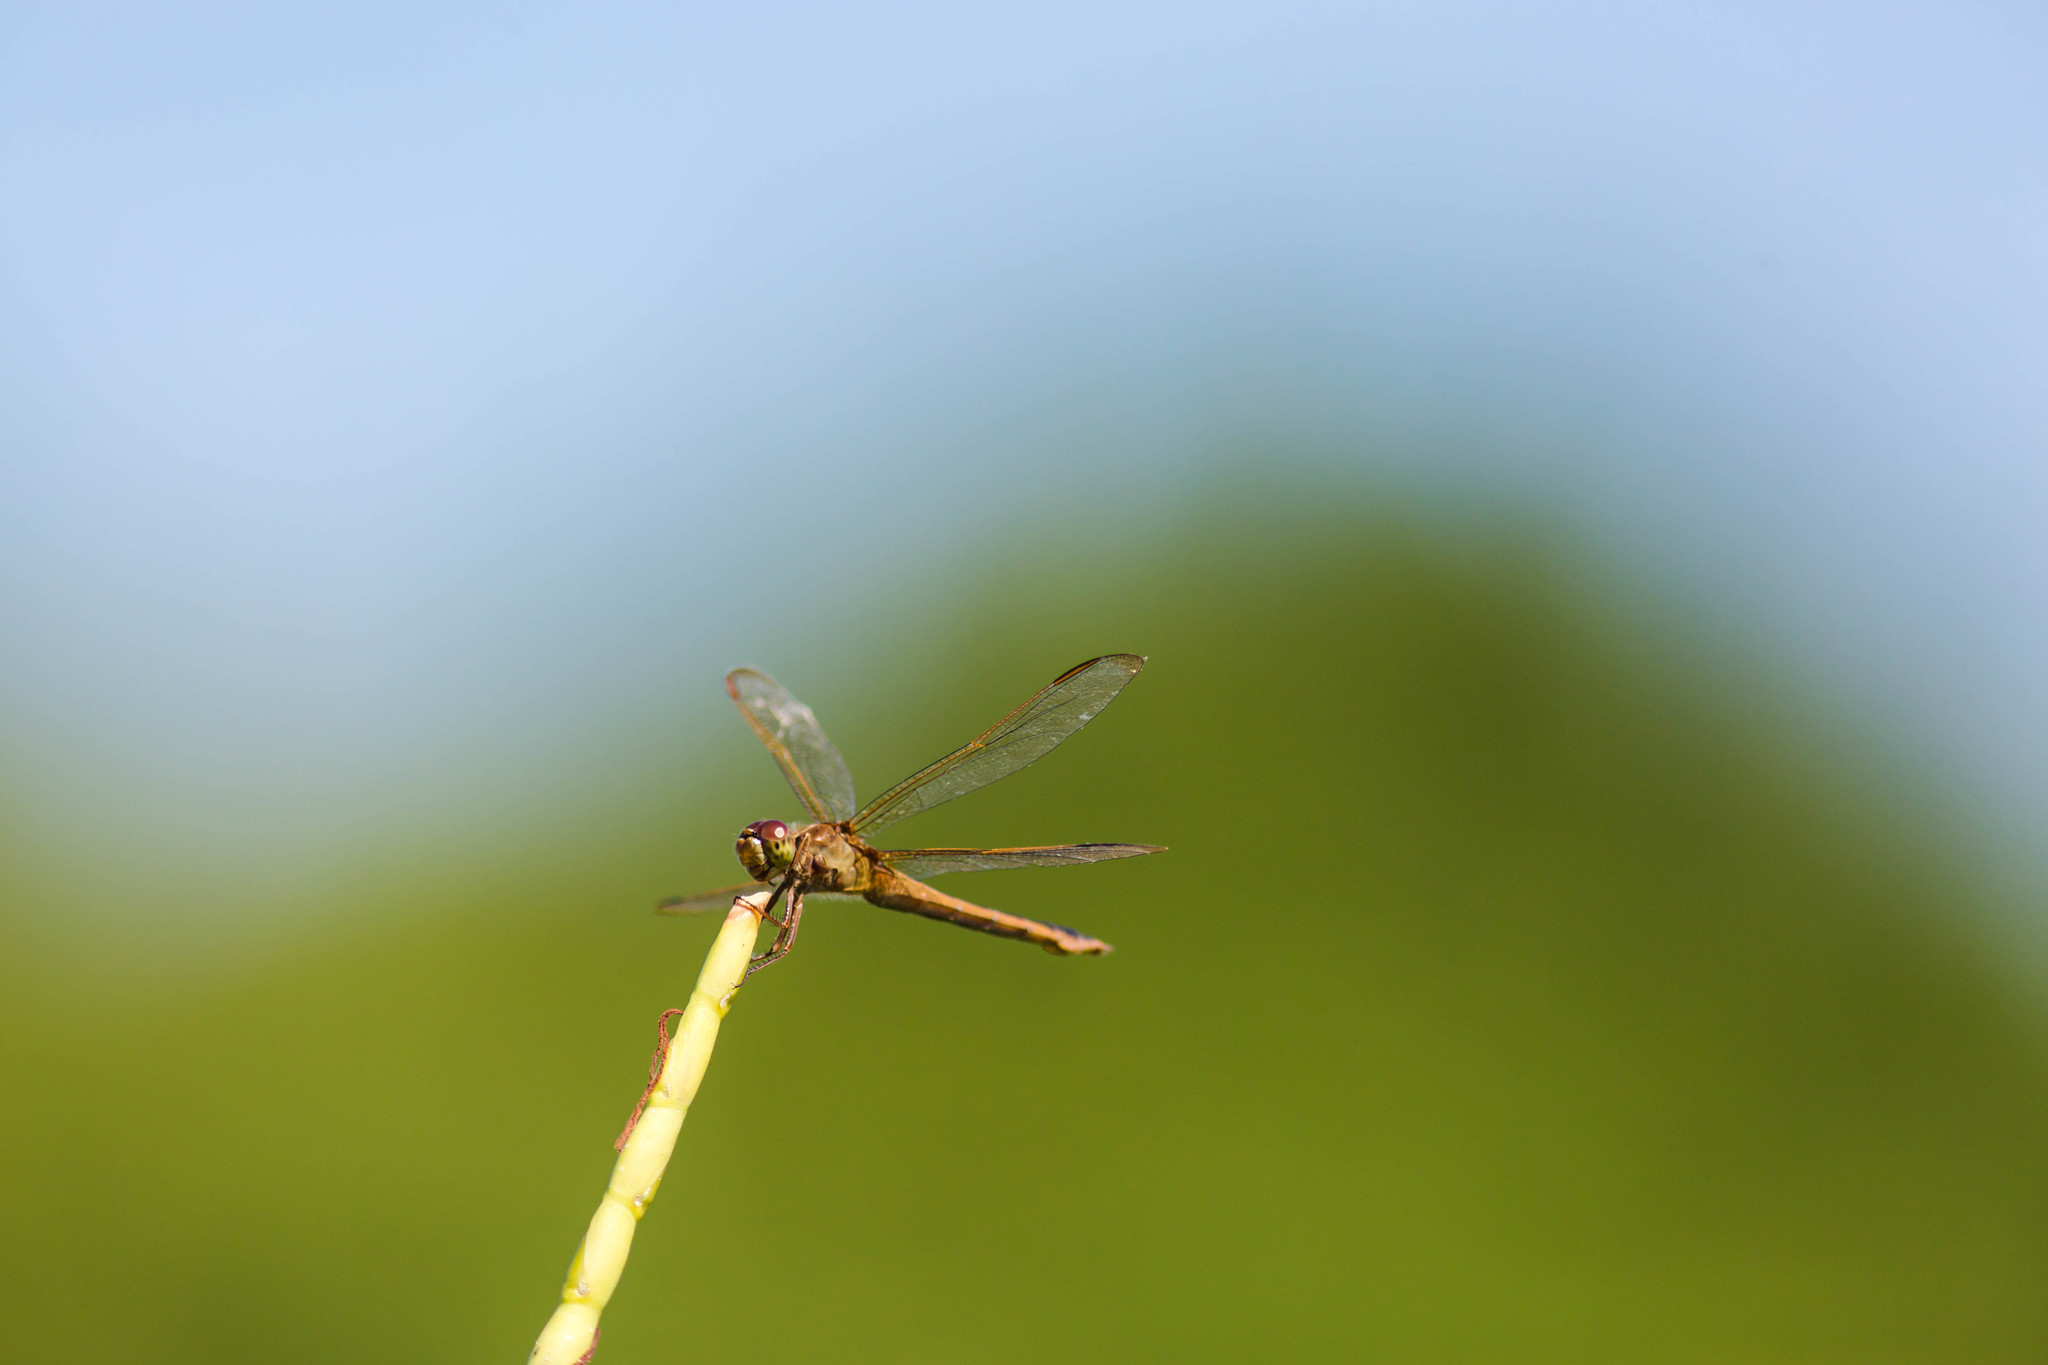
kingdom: Animalia
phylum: Arthropoda
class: Insecta
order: Odonata
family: Libellulidae
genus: Libellula
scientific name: Libellula needhami
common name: Needham's skimmer
